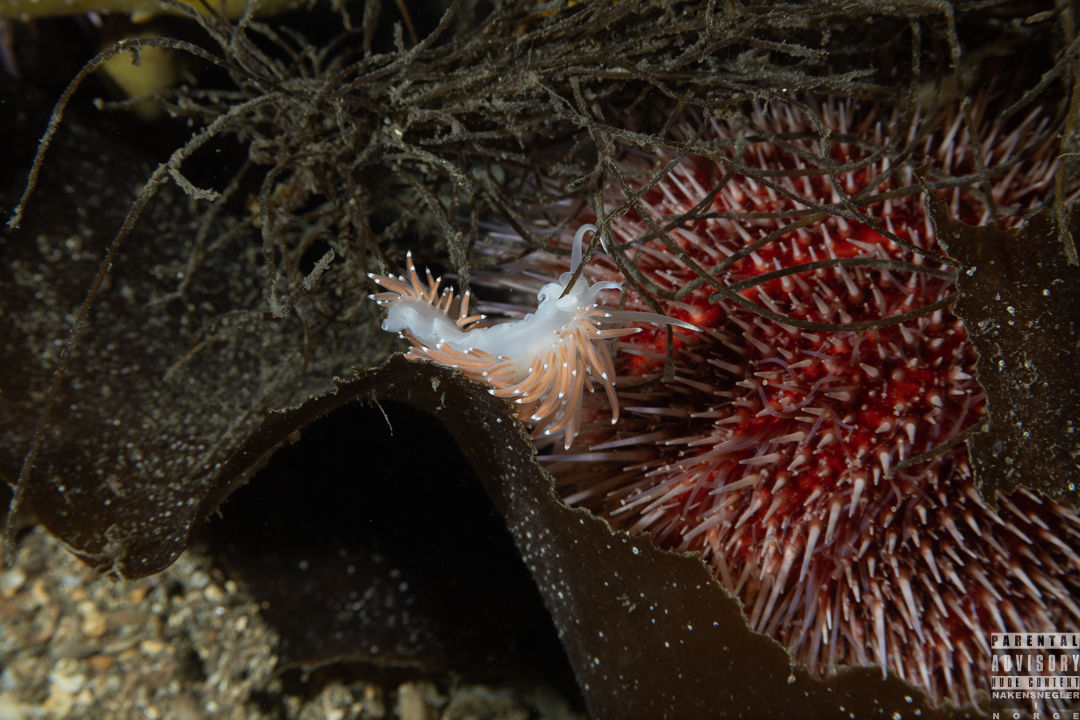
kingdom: Animalia
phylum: Mollusca
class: Gastropoda
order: Nudibranchia
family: Coryphellidae
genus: Coryphella
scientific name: Coryphella browni
